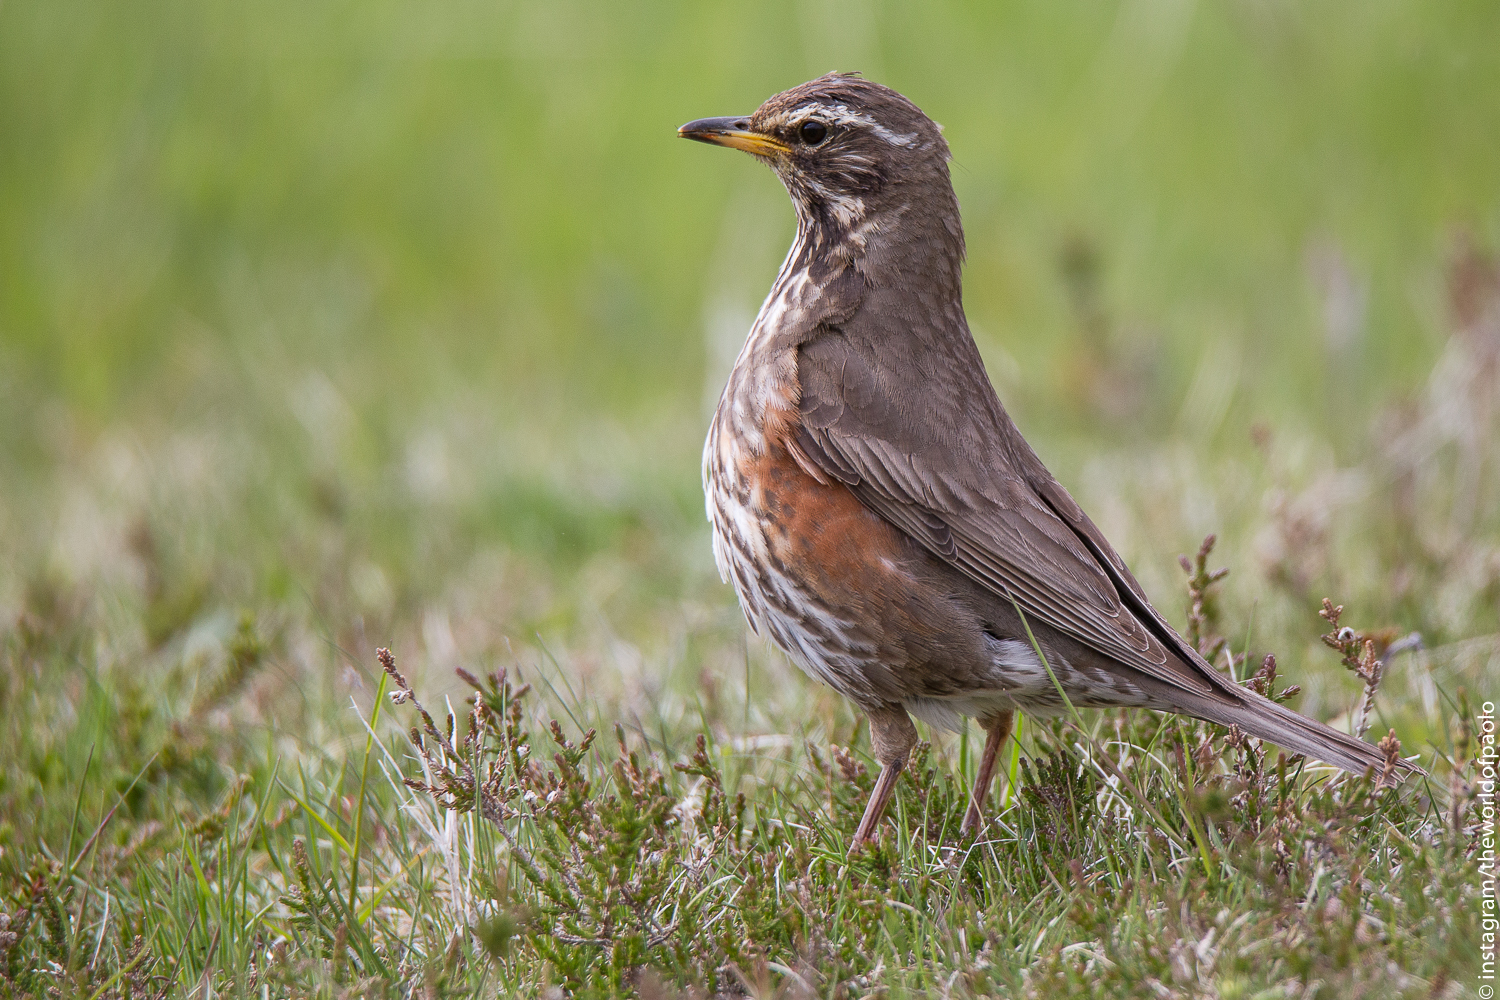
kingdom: Animalia
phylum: Chordata
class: Aves
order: Passeriformes
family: Turdidae
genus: Turdus
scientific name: Turdus iliacus
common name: Redwing
